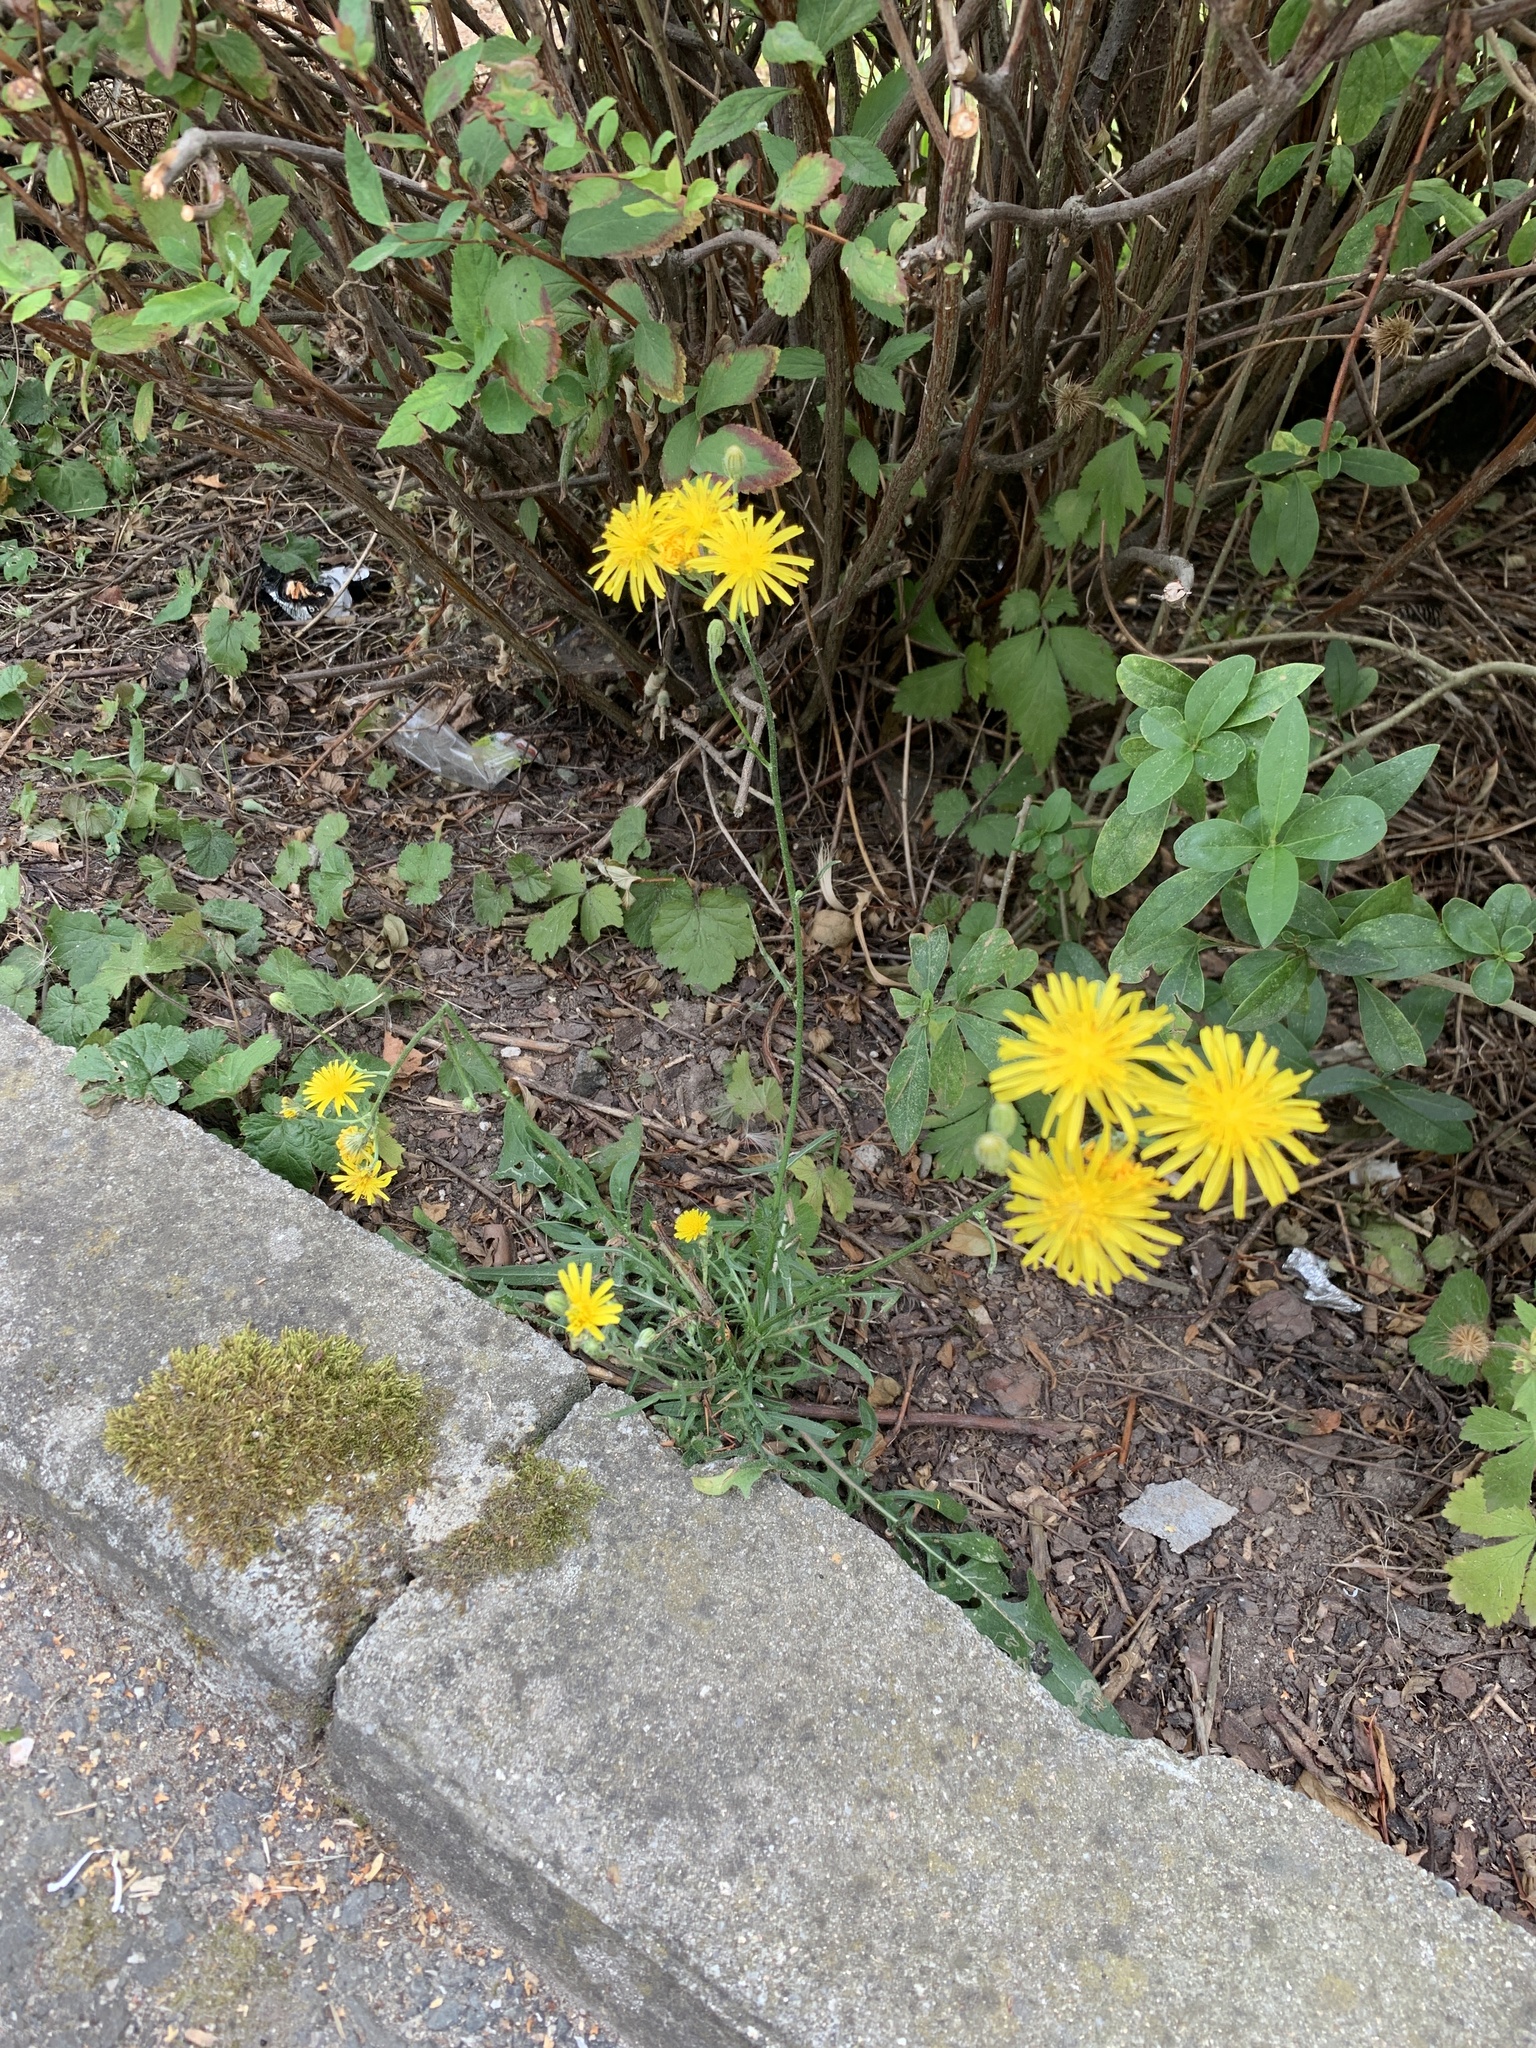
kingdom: Plantae
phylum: Tracheophyta
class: Magnoliopsida
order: Asterales
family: Asteraceae
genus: Crepis
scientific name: Crepis biennis
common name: Rough hawk's-beard
